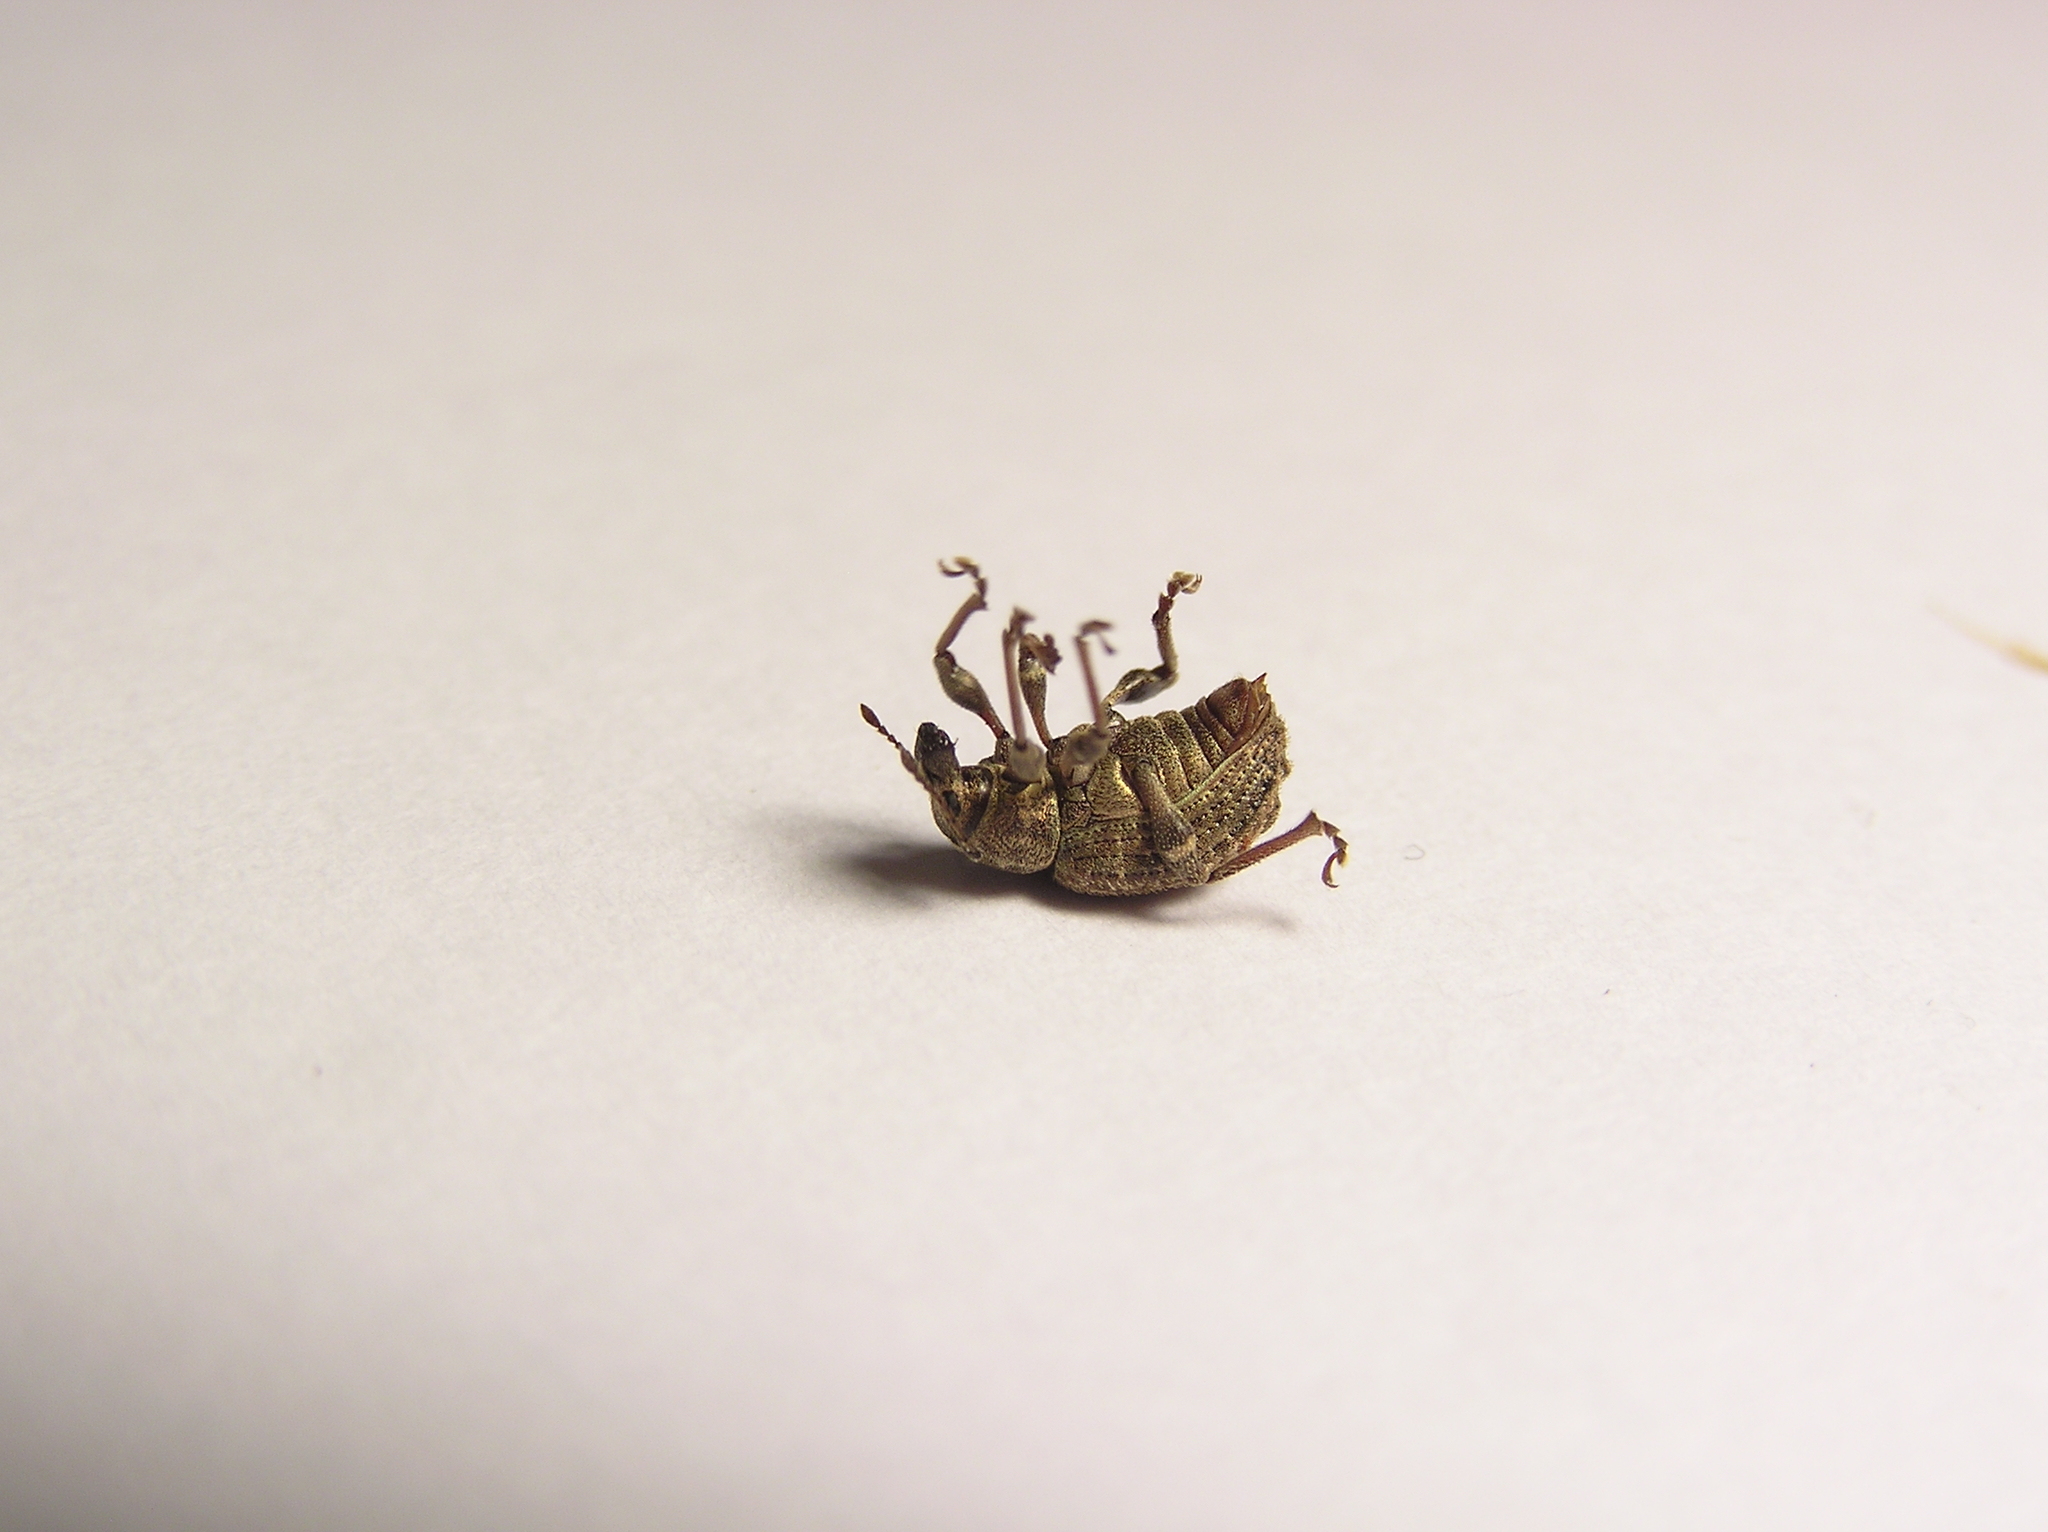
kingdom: Animalia
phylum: Arthropoda
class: Insecta
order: Coleoptera
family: Curculionidae
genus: Phlyctinus
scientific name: Phlyctinus callosus
